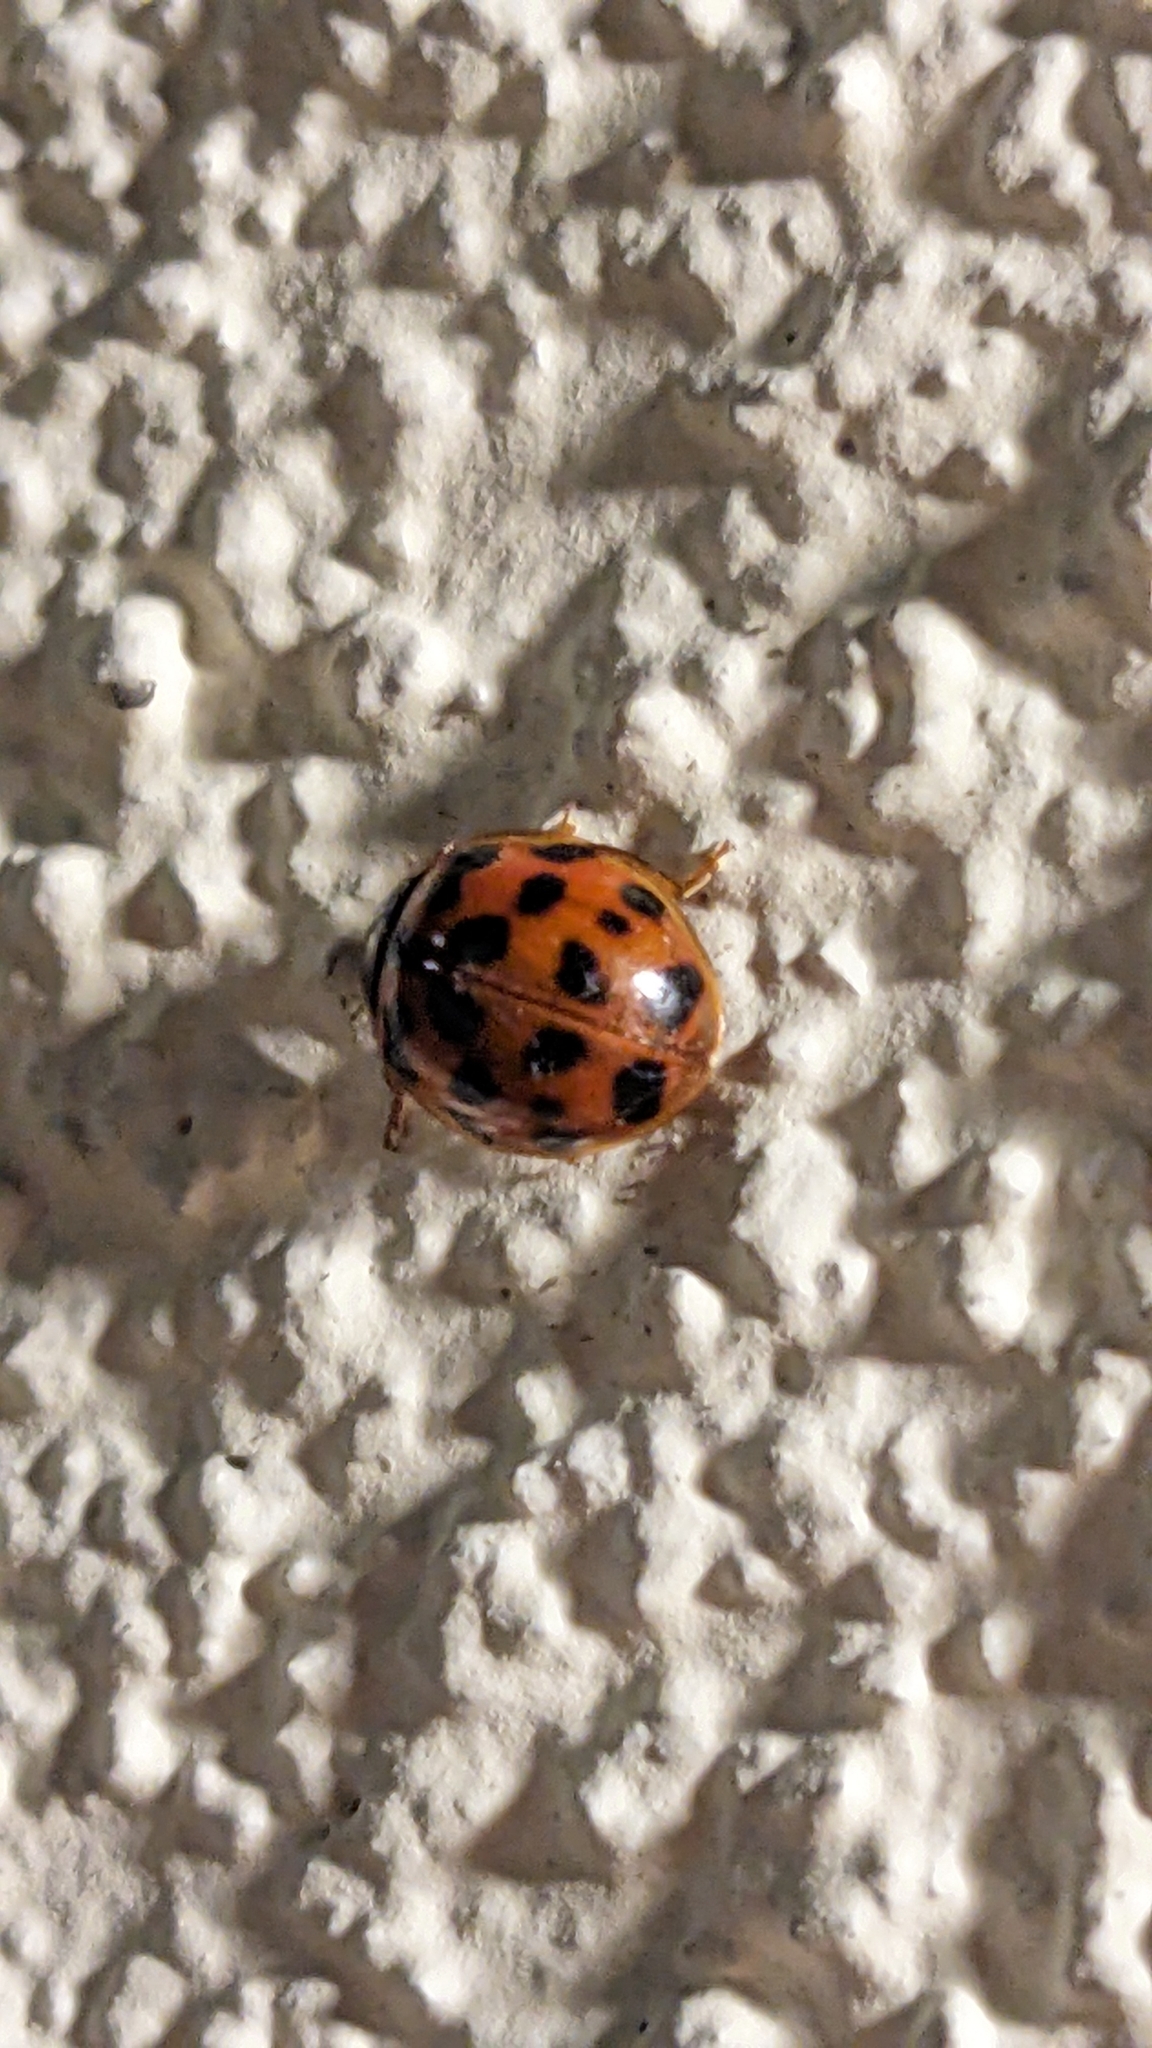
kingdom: Animalia
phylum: Arthropoda
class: Insecta
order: Coleoptera
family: Coccinellidae
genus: Harmonia
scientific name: Harmonia axyridis
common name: Harlequin ladybird
